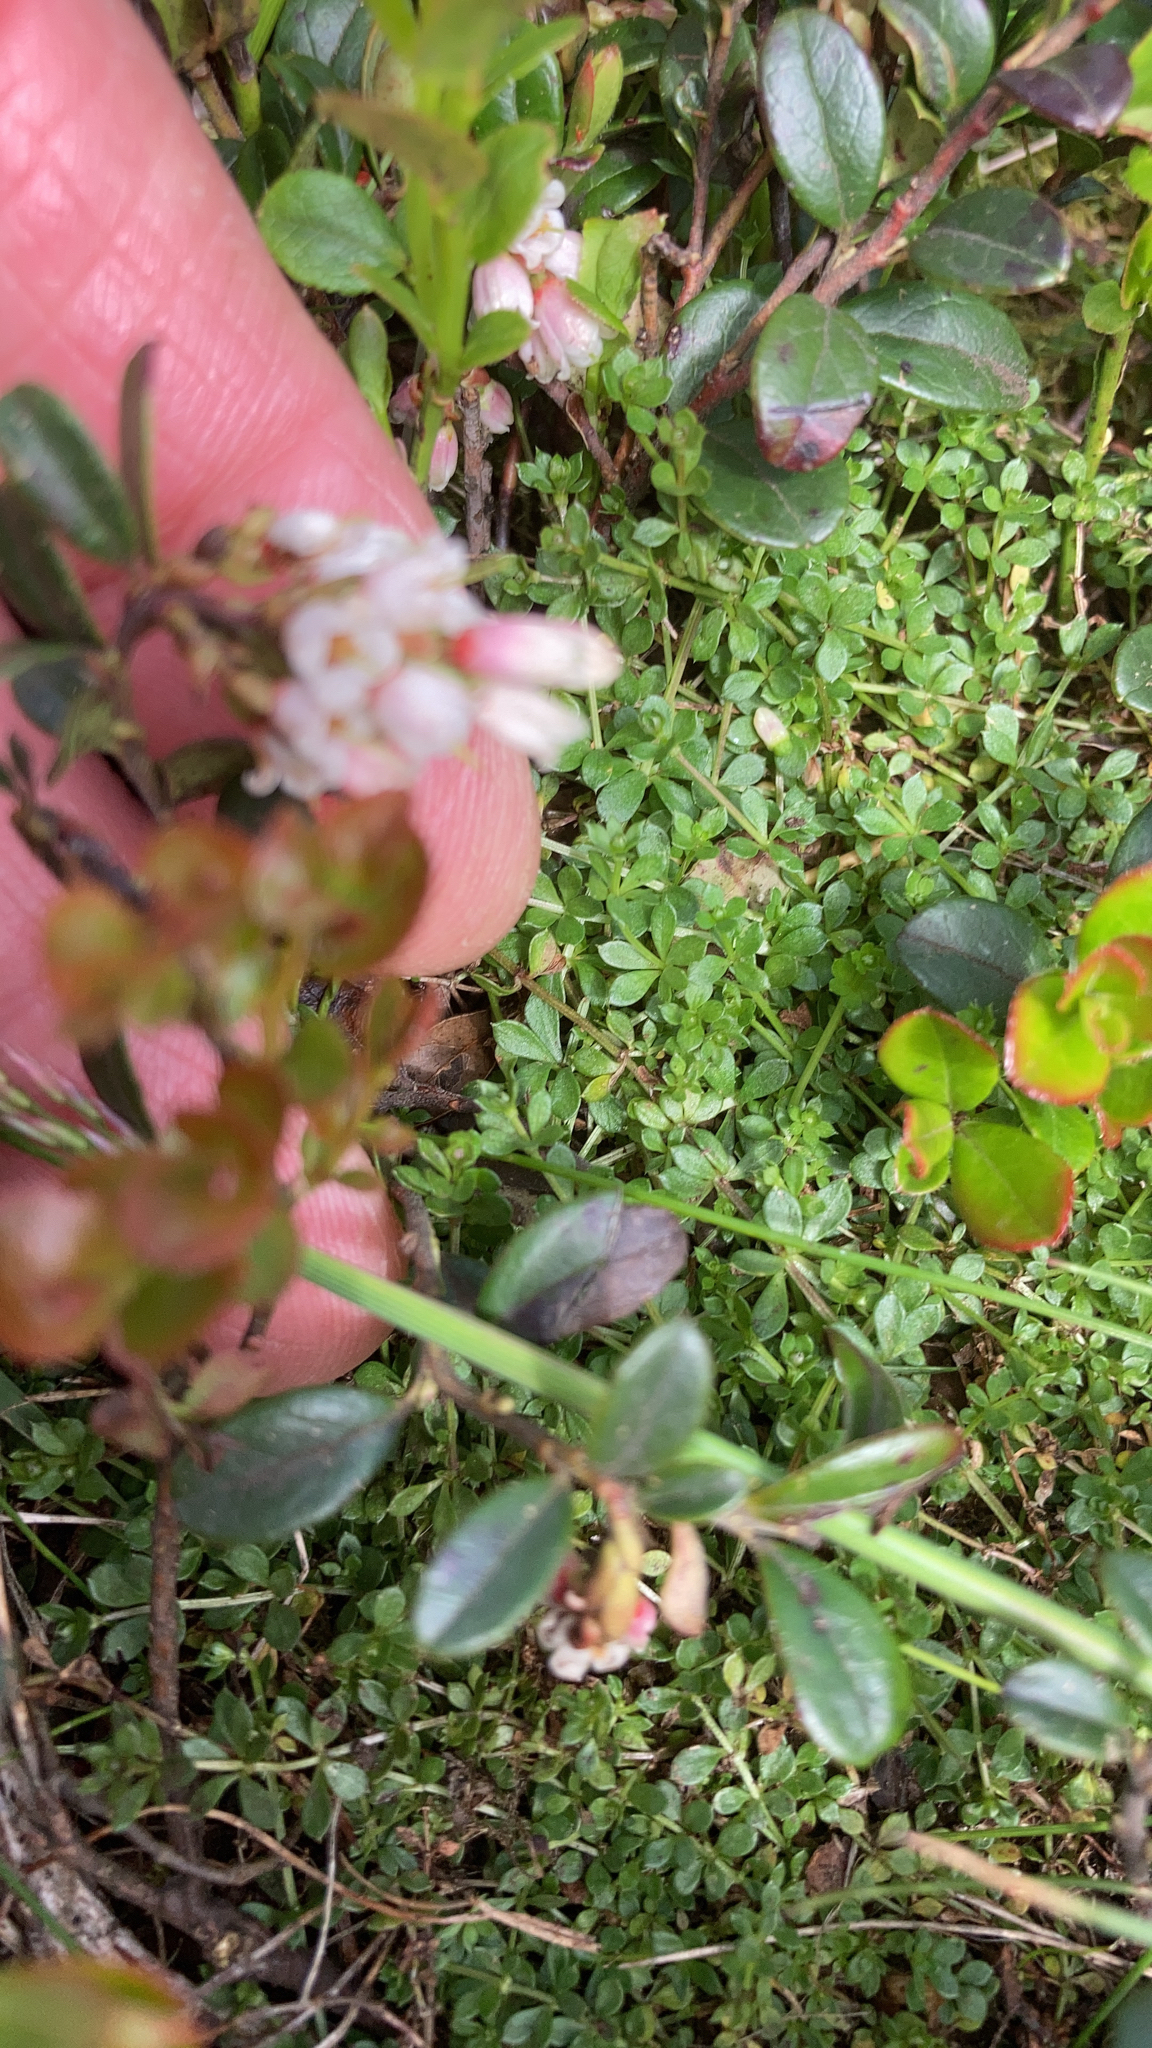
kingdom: Plantae
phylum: Tracheophyta
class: Magnoliopsida
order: Ericales
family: Ericaceae
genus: Vaccinium
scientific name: Vaccinium vitis-idaea
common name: Cowberry
